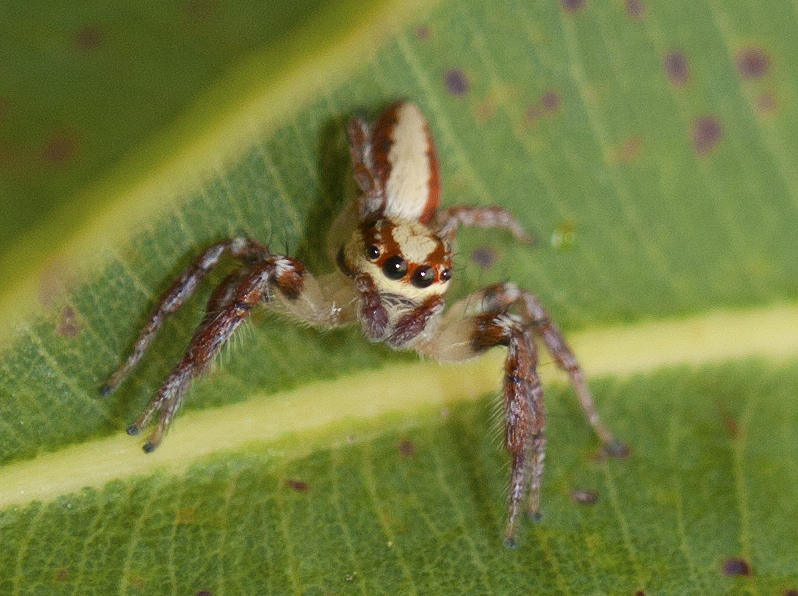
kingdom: Animalia
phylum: Arthropoda
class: Arachnida
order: Araneae
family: Salticidae
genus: Cytaea
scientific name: Cytaea alburna
